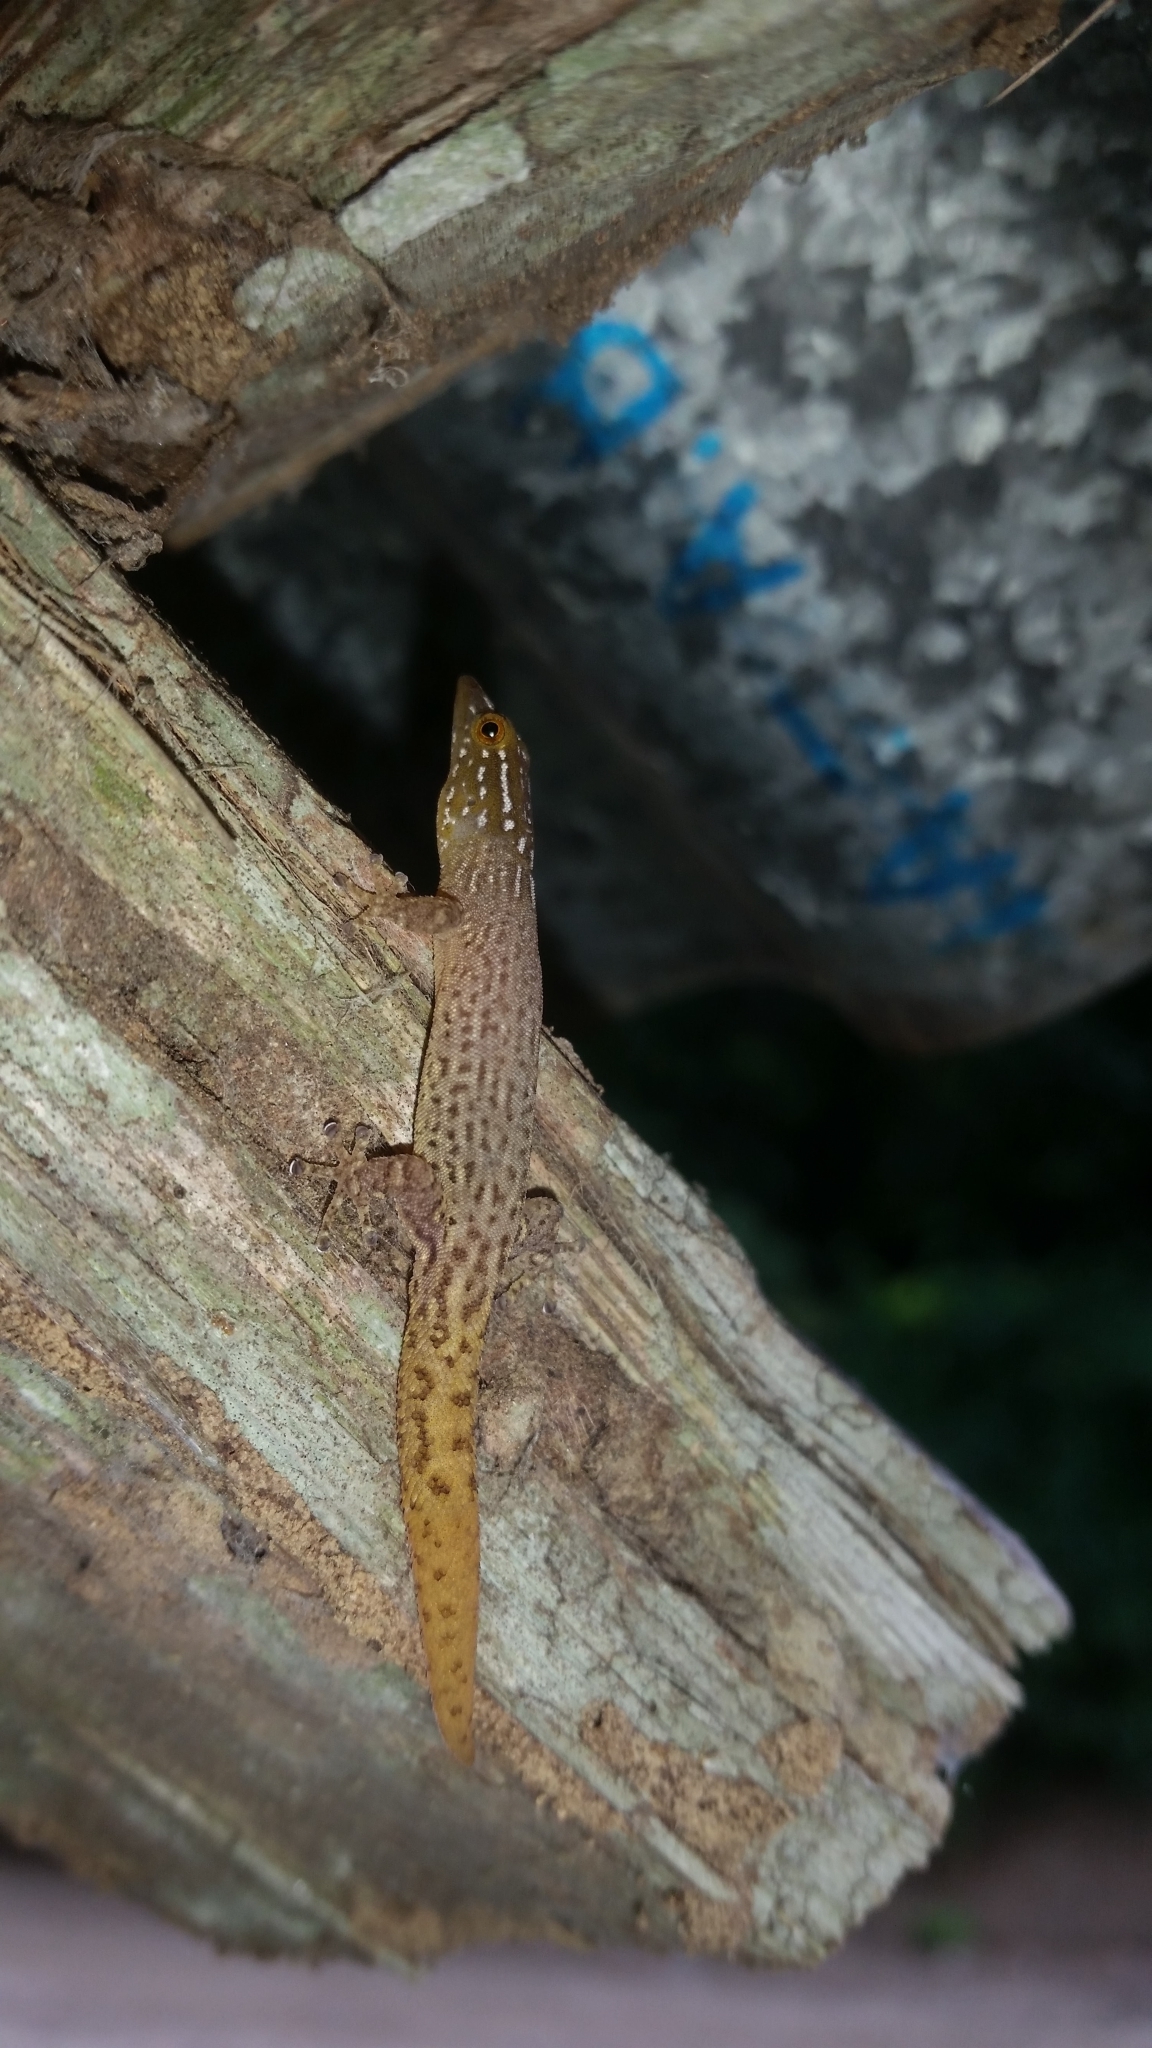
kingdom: Animalia
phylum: Chordata
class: Squamata
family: Sphaerodactylidae
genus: Sphaerodactylus
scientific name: Sphaerodactylus lineolatus
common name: Panama least gecko
